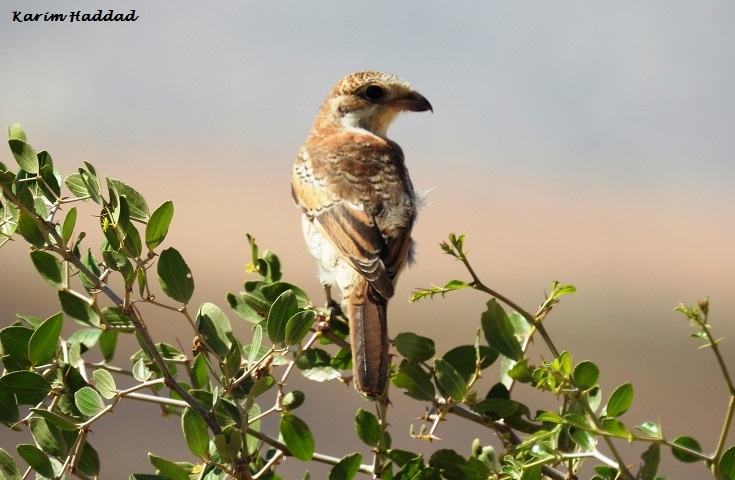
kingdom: Animalia
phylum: Chordata
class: Aves
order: Passeriformes
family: Laniidae
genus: Lanius
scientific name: Lanius senator
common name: Woodchat shrike
